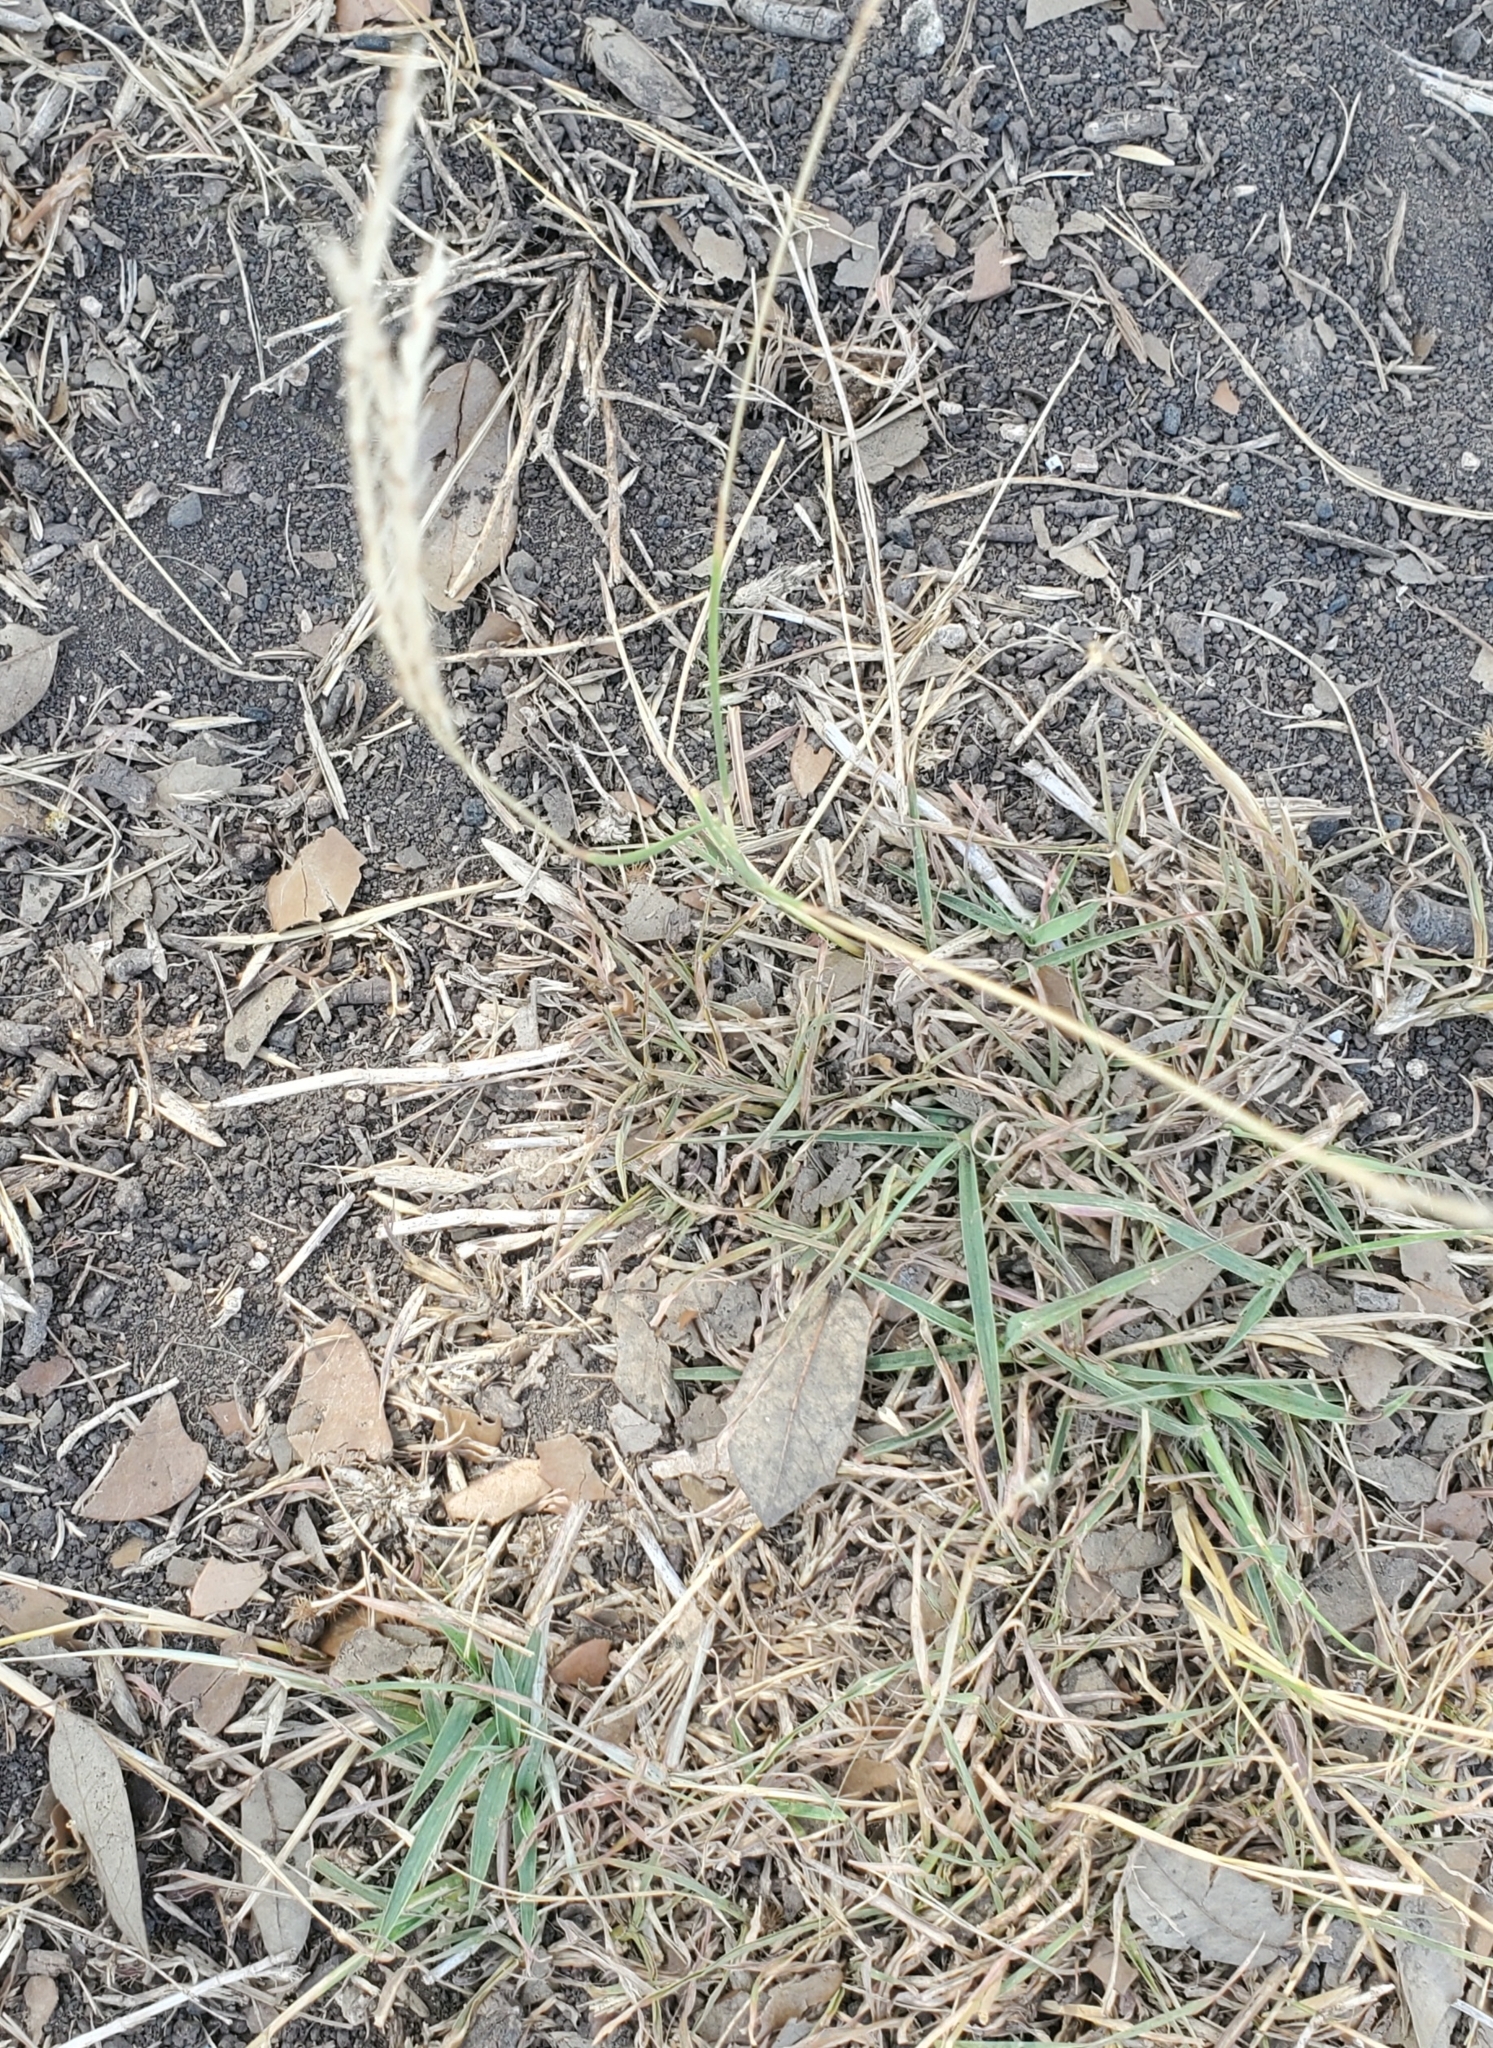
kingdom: Plantae
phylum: Tracheophyta
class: Liliopsida
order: Poales
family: Poaceae
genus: Bothriochloa
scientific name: Bothriochloa ischaemum
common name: Yellow bluestem
